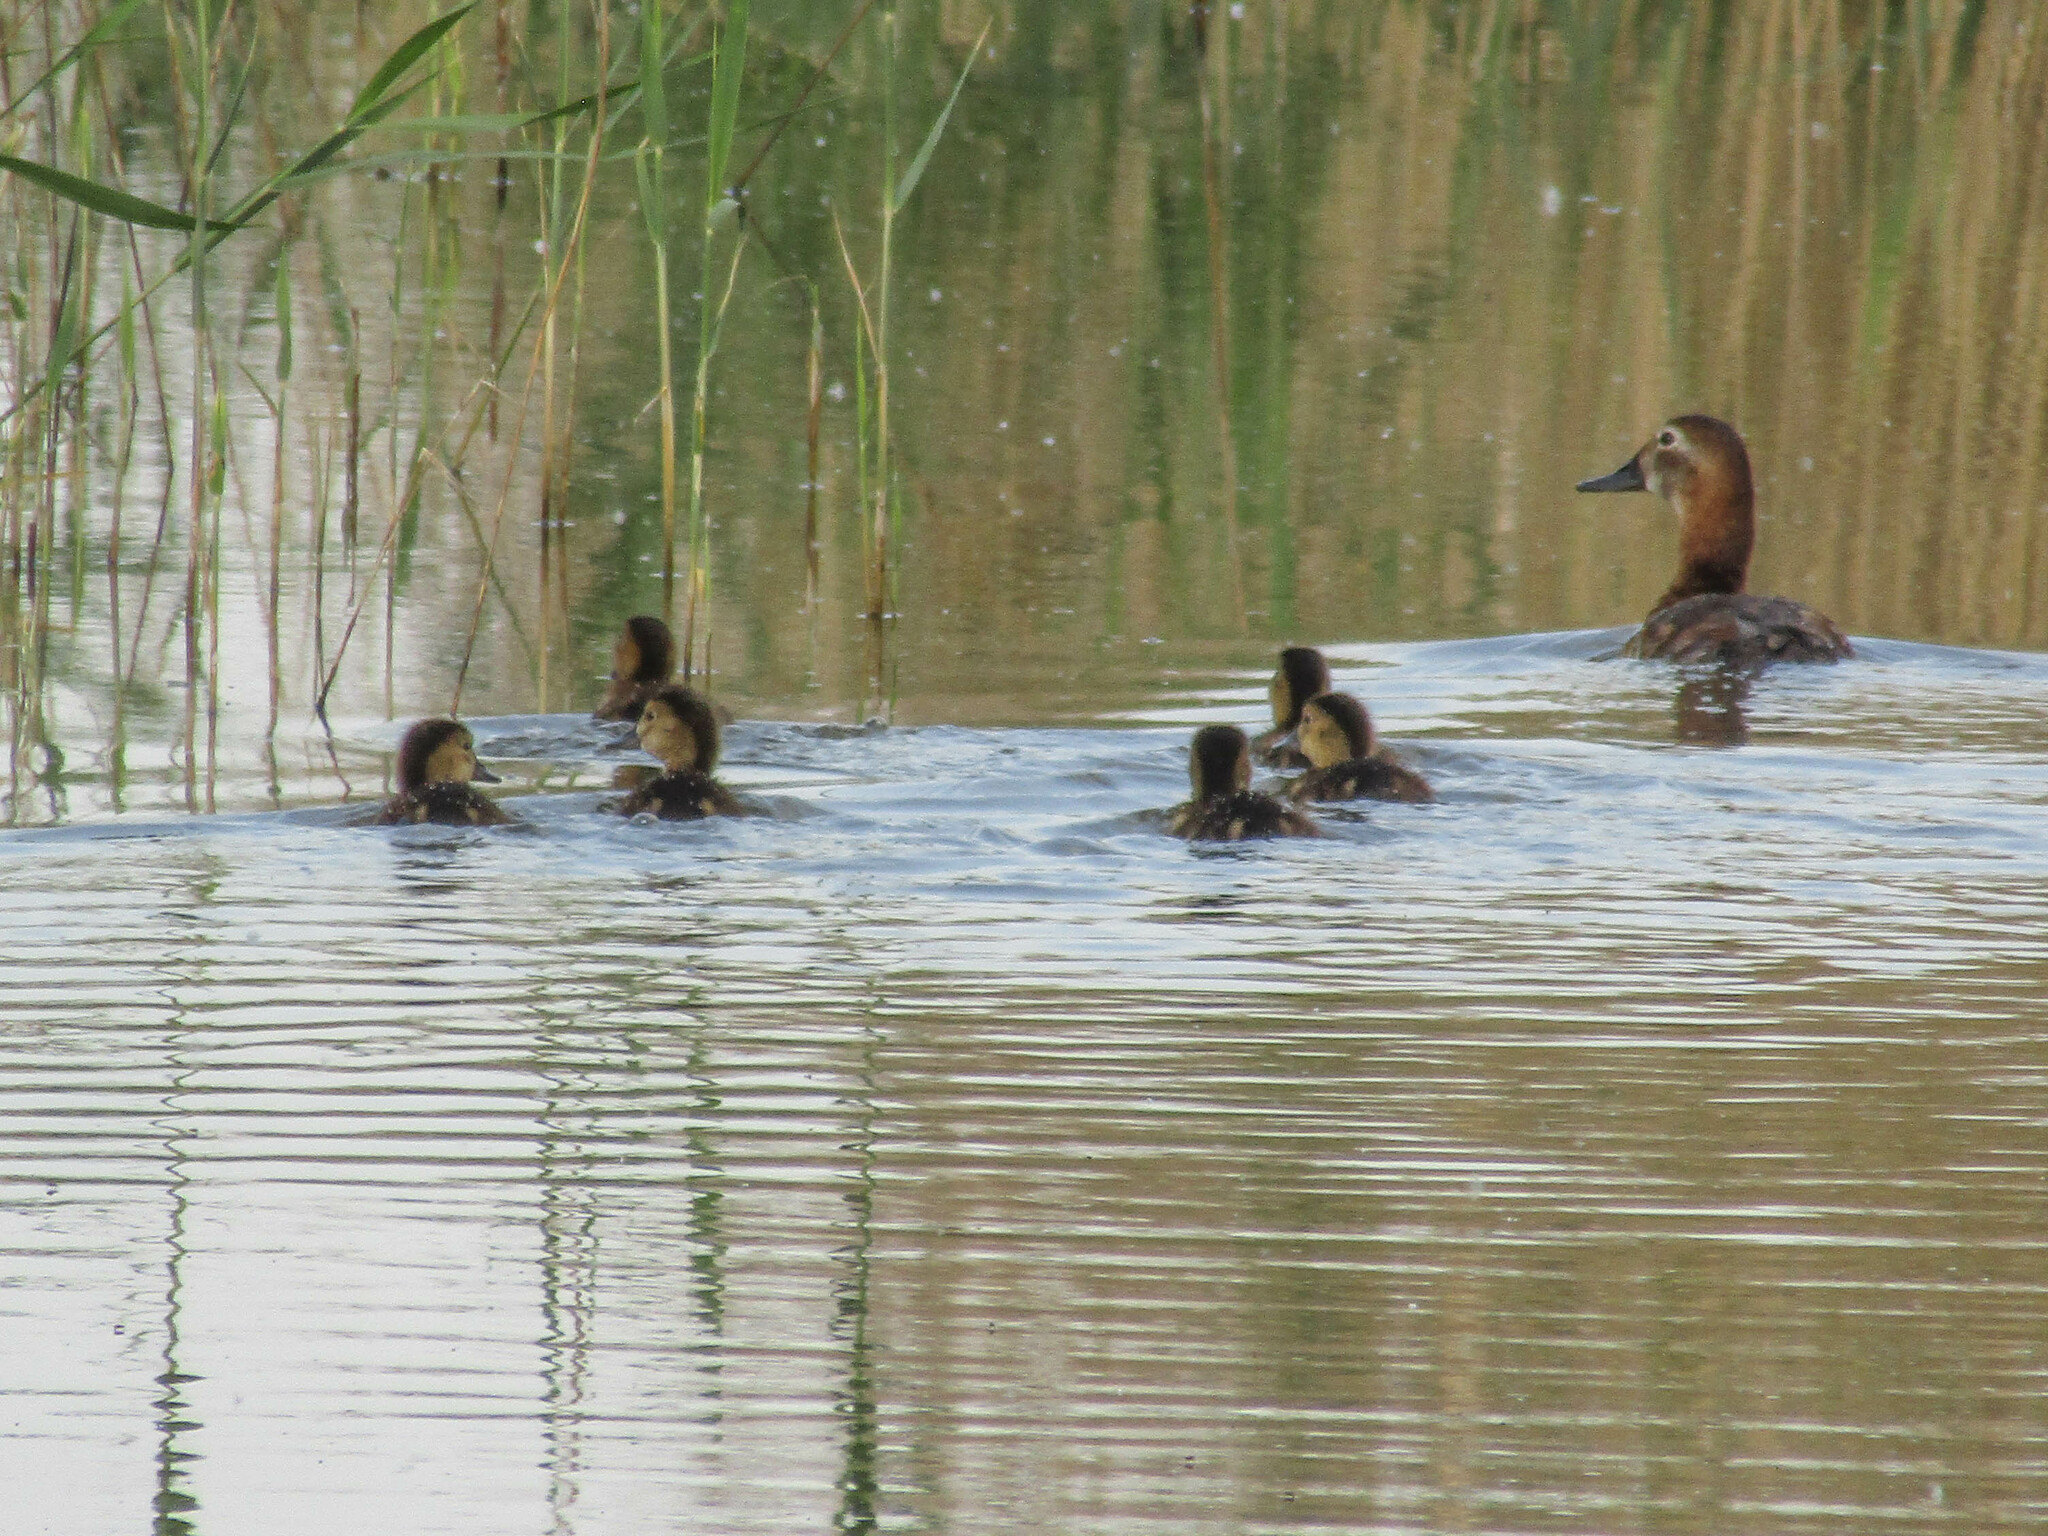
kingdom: Animalia
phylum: Chordata
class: Aves
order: Anseriformes
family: Anatidae
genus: Aythya
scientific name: Aythya ferina
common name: Common pochard
